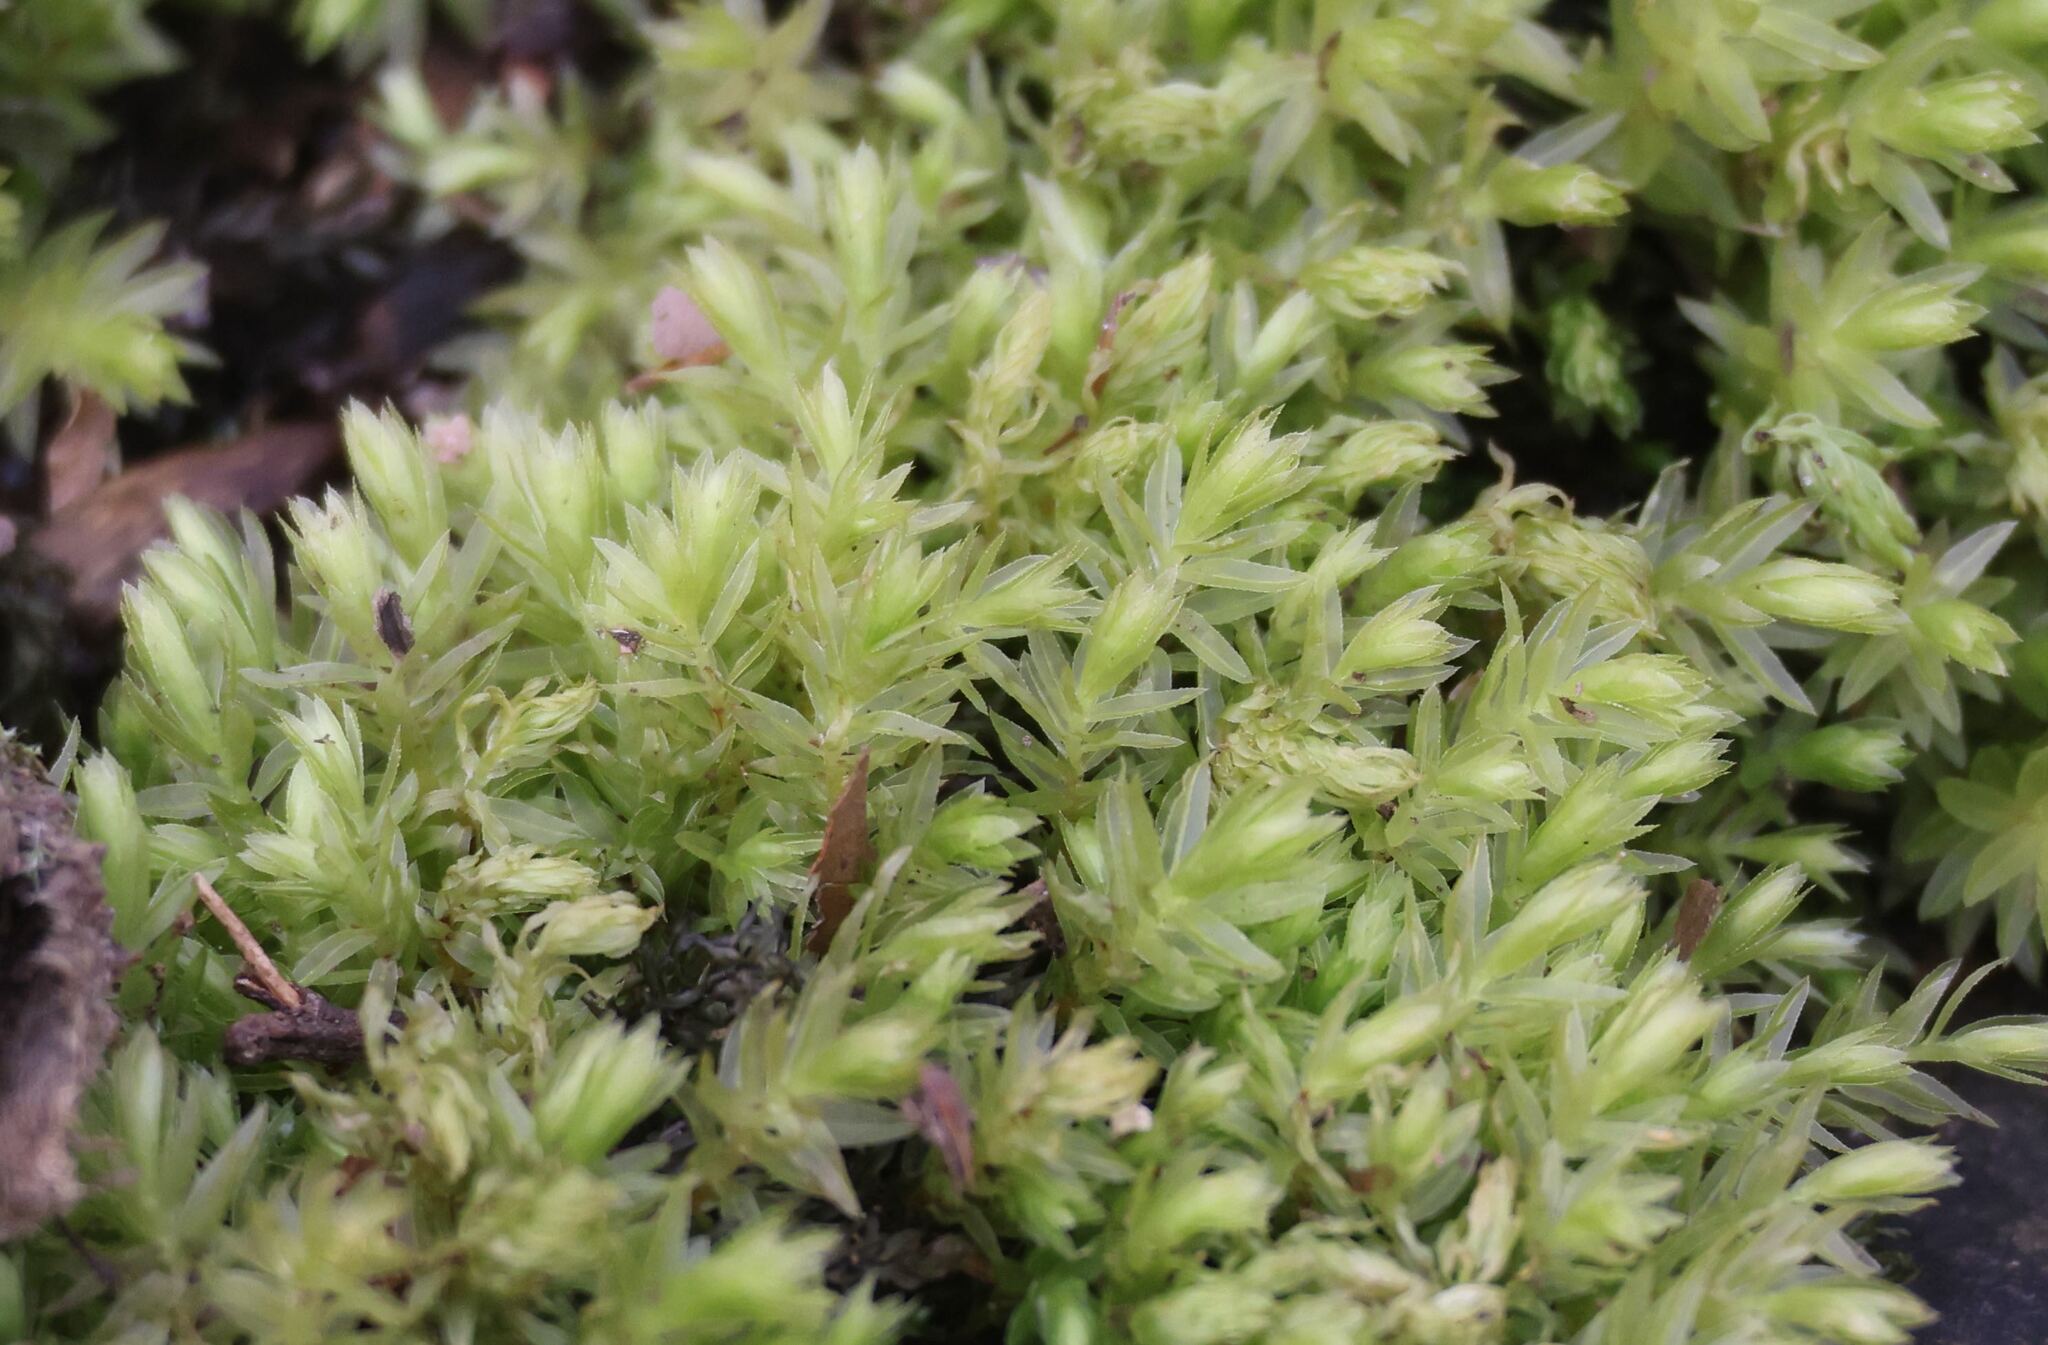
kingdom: Plantae
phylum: Bryophyta
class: Bryopsida
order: Bryales
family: Mniaceae
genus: Mnium
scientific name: Mnium hornum
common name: Swan's-neck leafy moss
